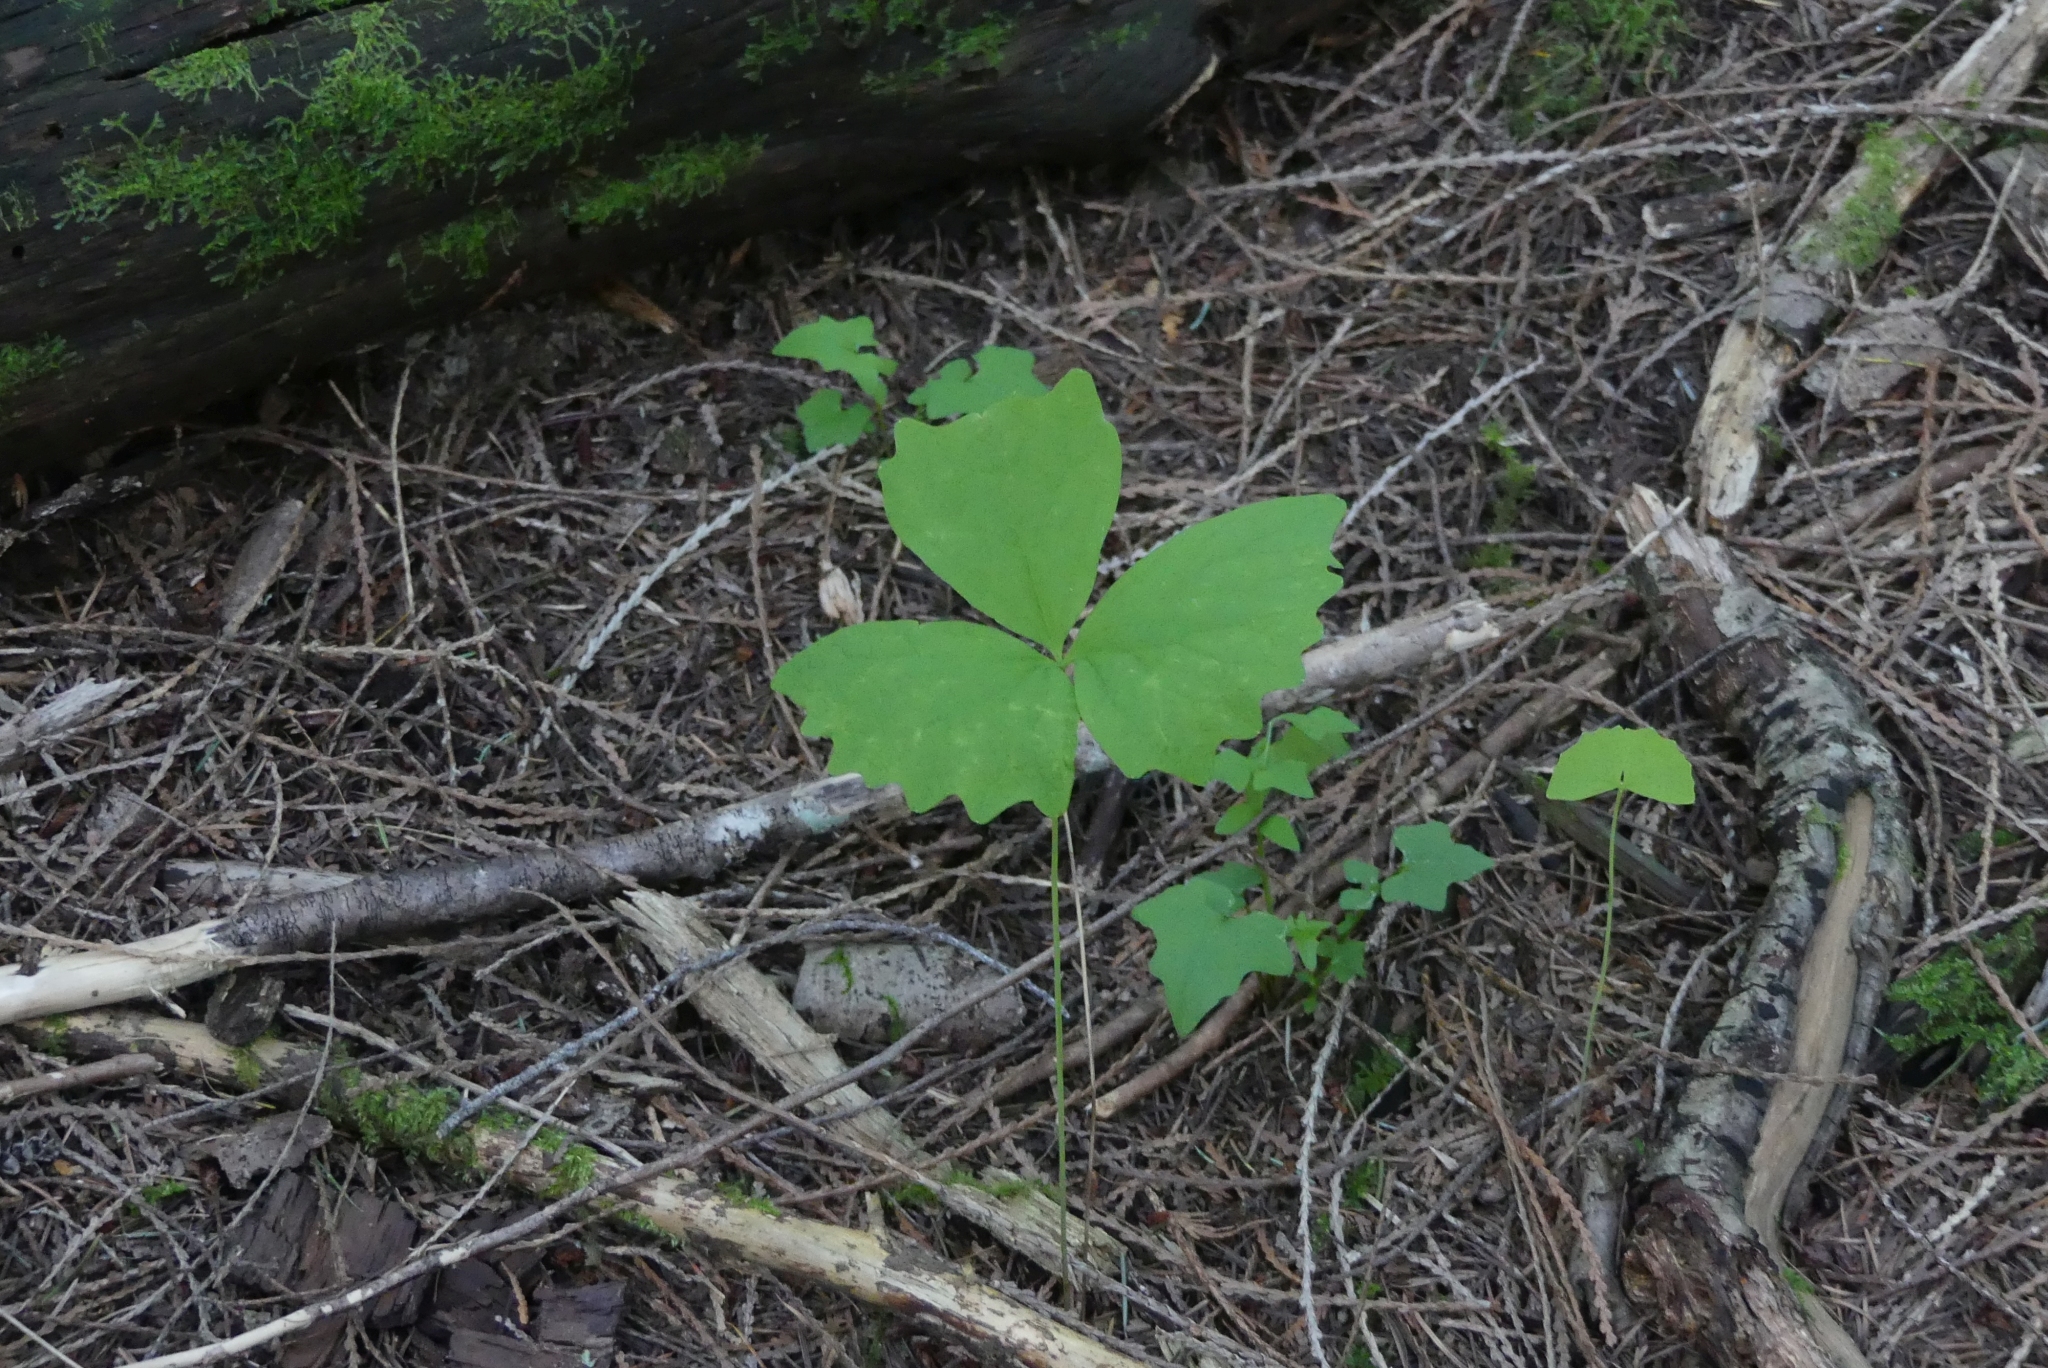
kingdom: Plantae
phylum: Tracheophyta
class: Magnoliopsida
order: Ranunculales
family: Berberidaceae
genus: Achlys
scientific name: Achlys triphylla
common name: Vanilla-leaf
